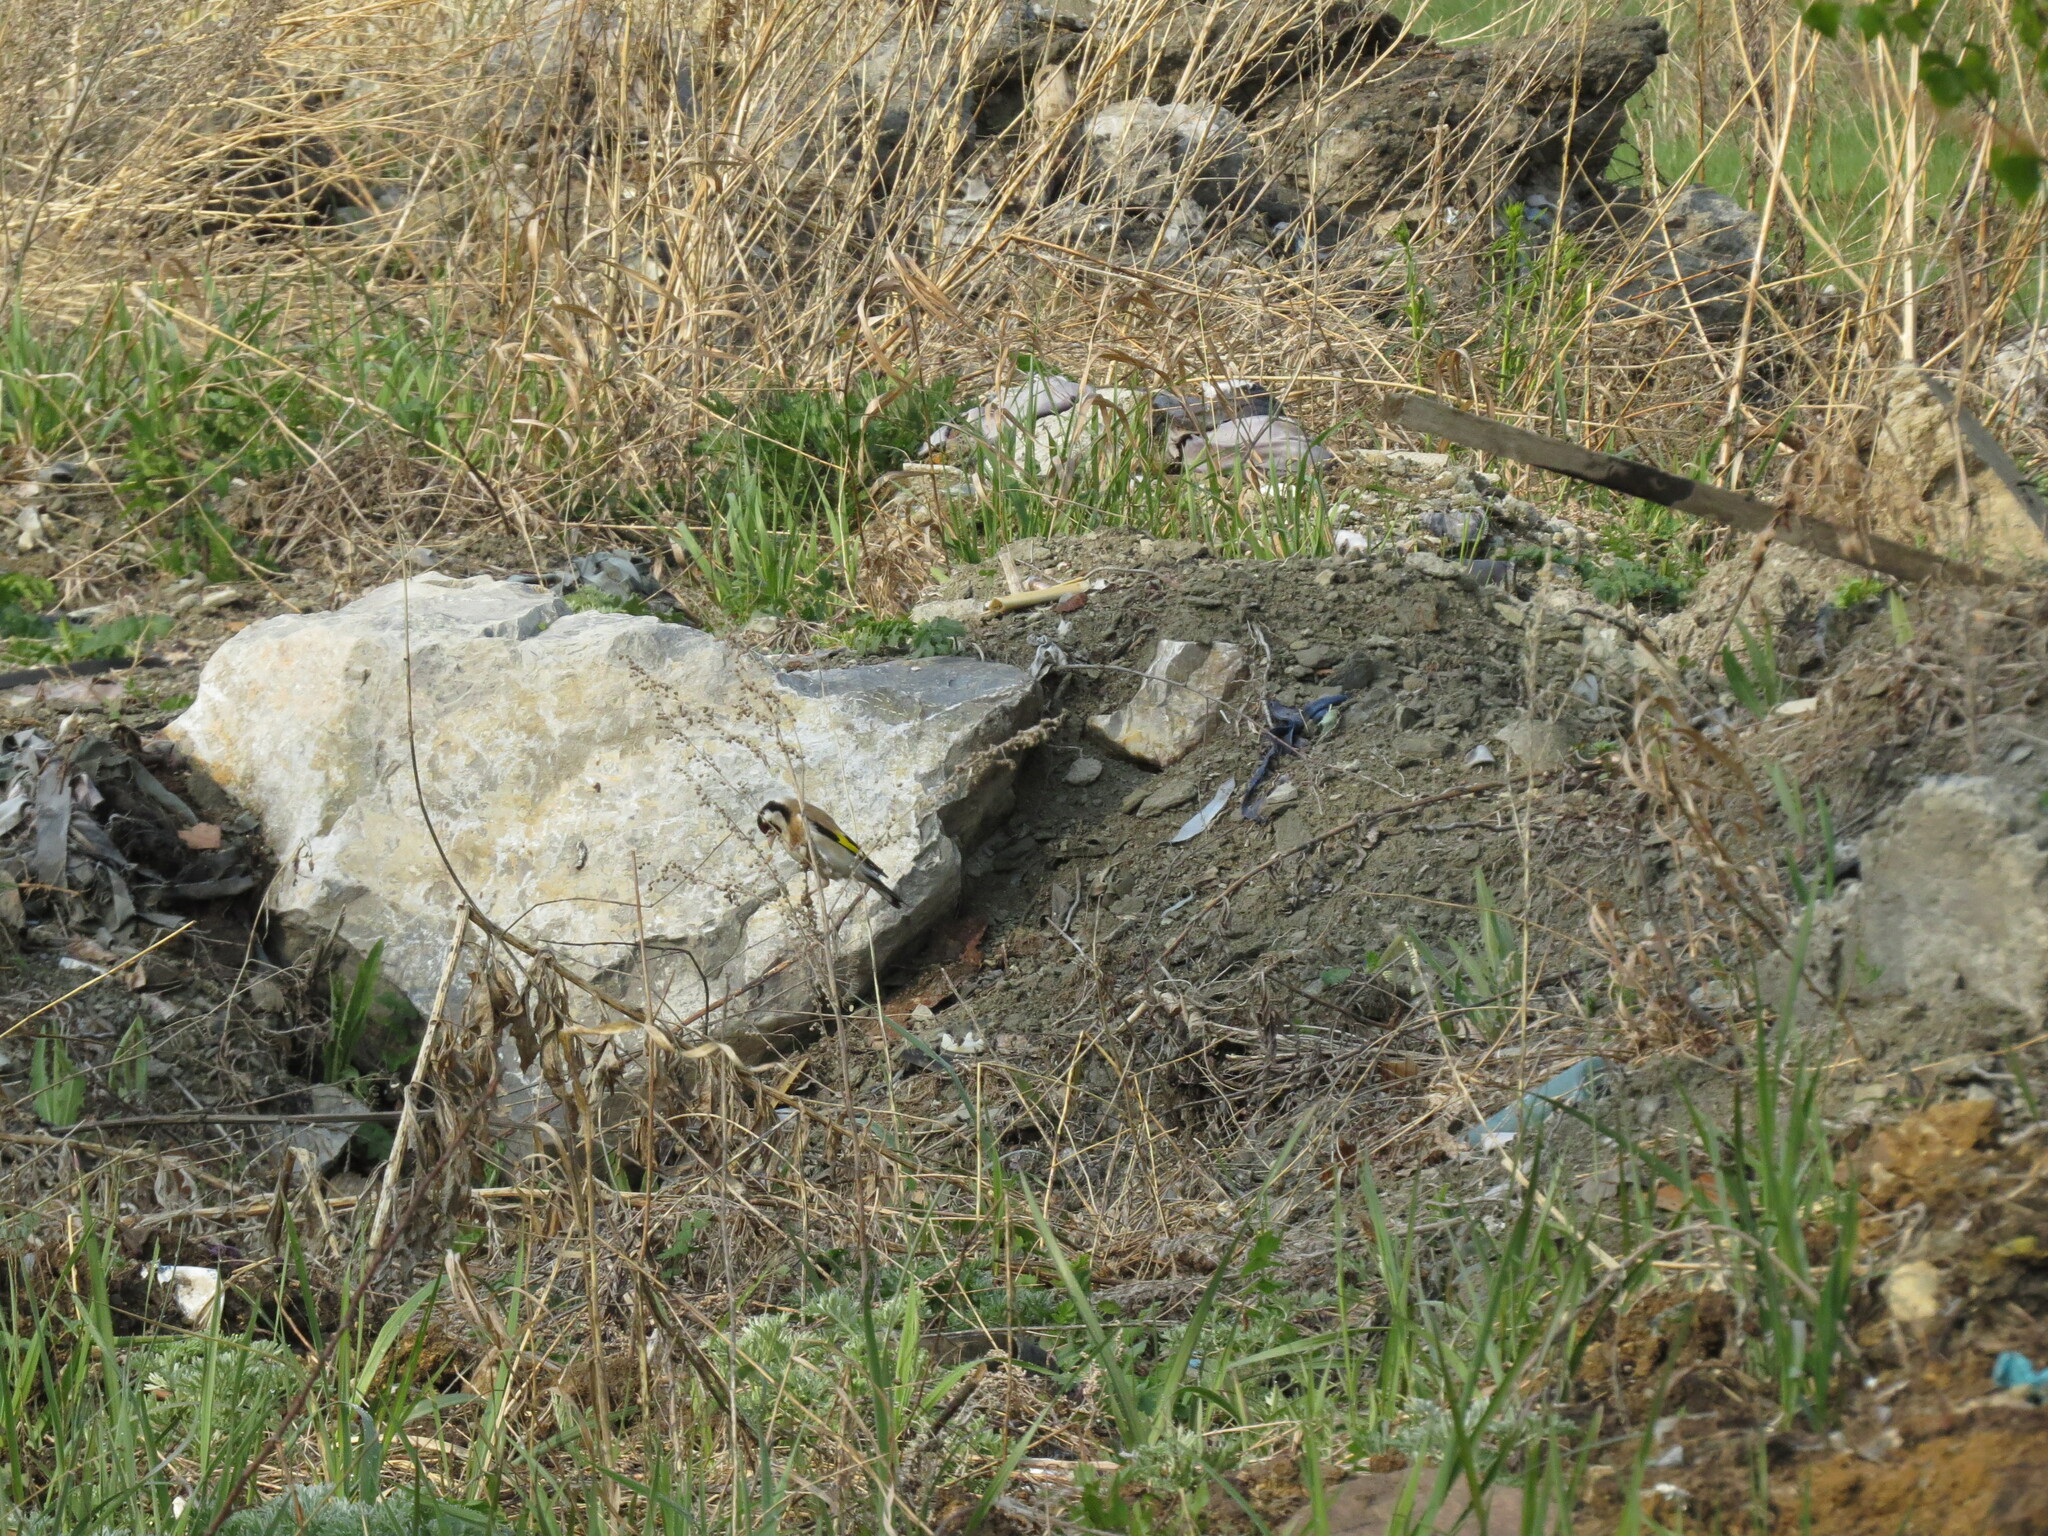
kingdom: Animalia
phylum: Chordata
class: Aves
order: Passeriformes
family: Fringillidae
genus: Carduelis
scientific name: Carduelis carduelis
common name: European goldfinch
